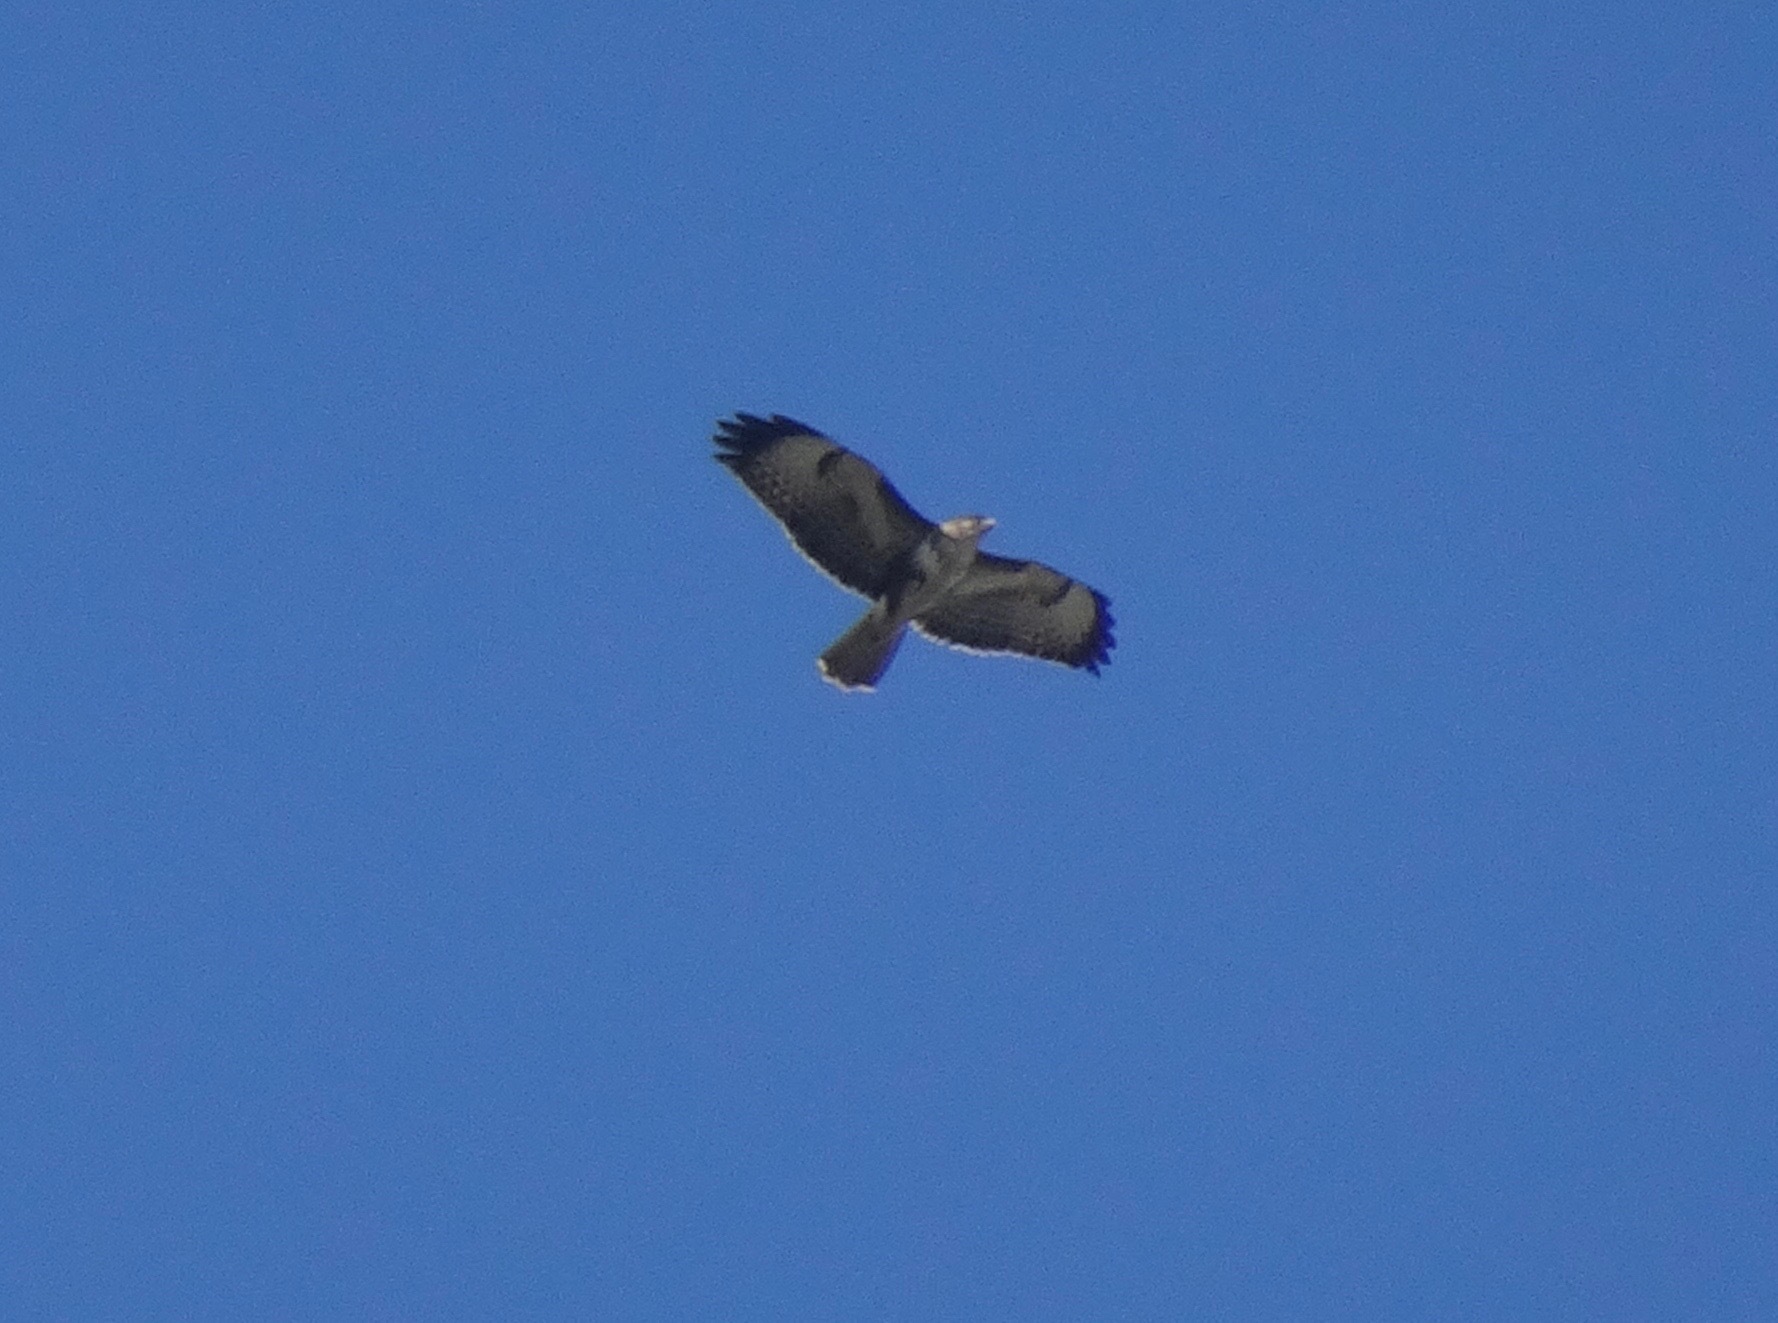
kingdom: Animalia
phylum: Chordata
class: Aves
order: Accipitriformes
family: Accipitridae
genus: Buteo
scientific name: Buteo buteo
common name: Common buzzard
